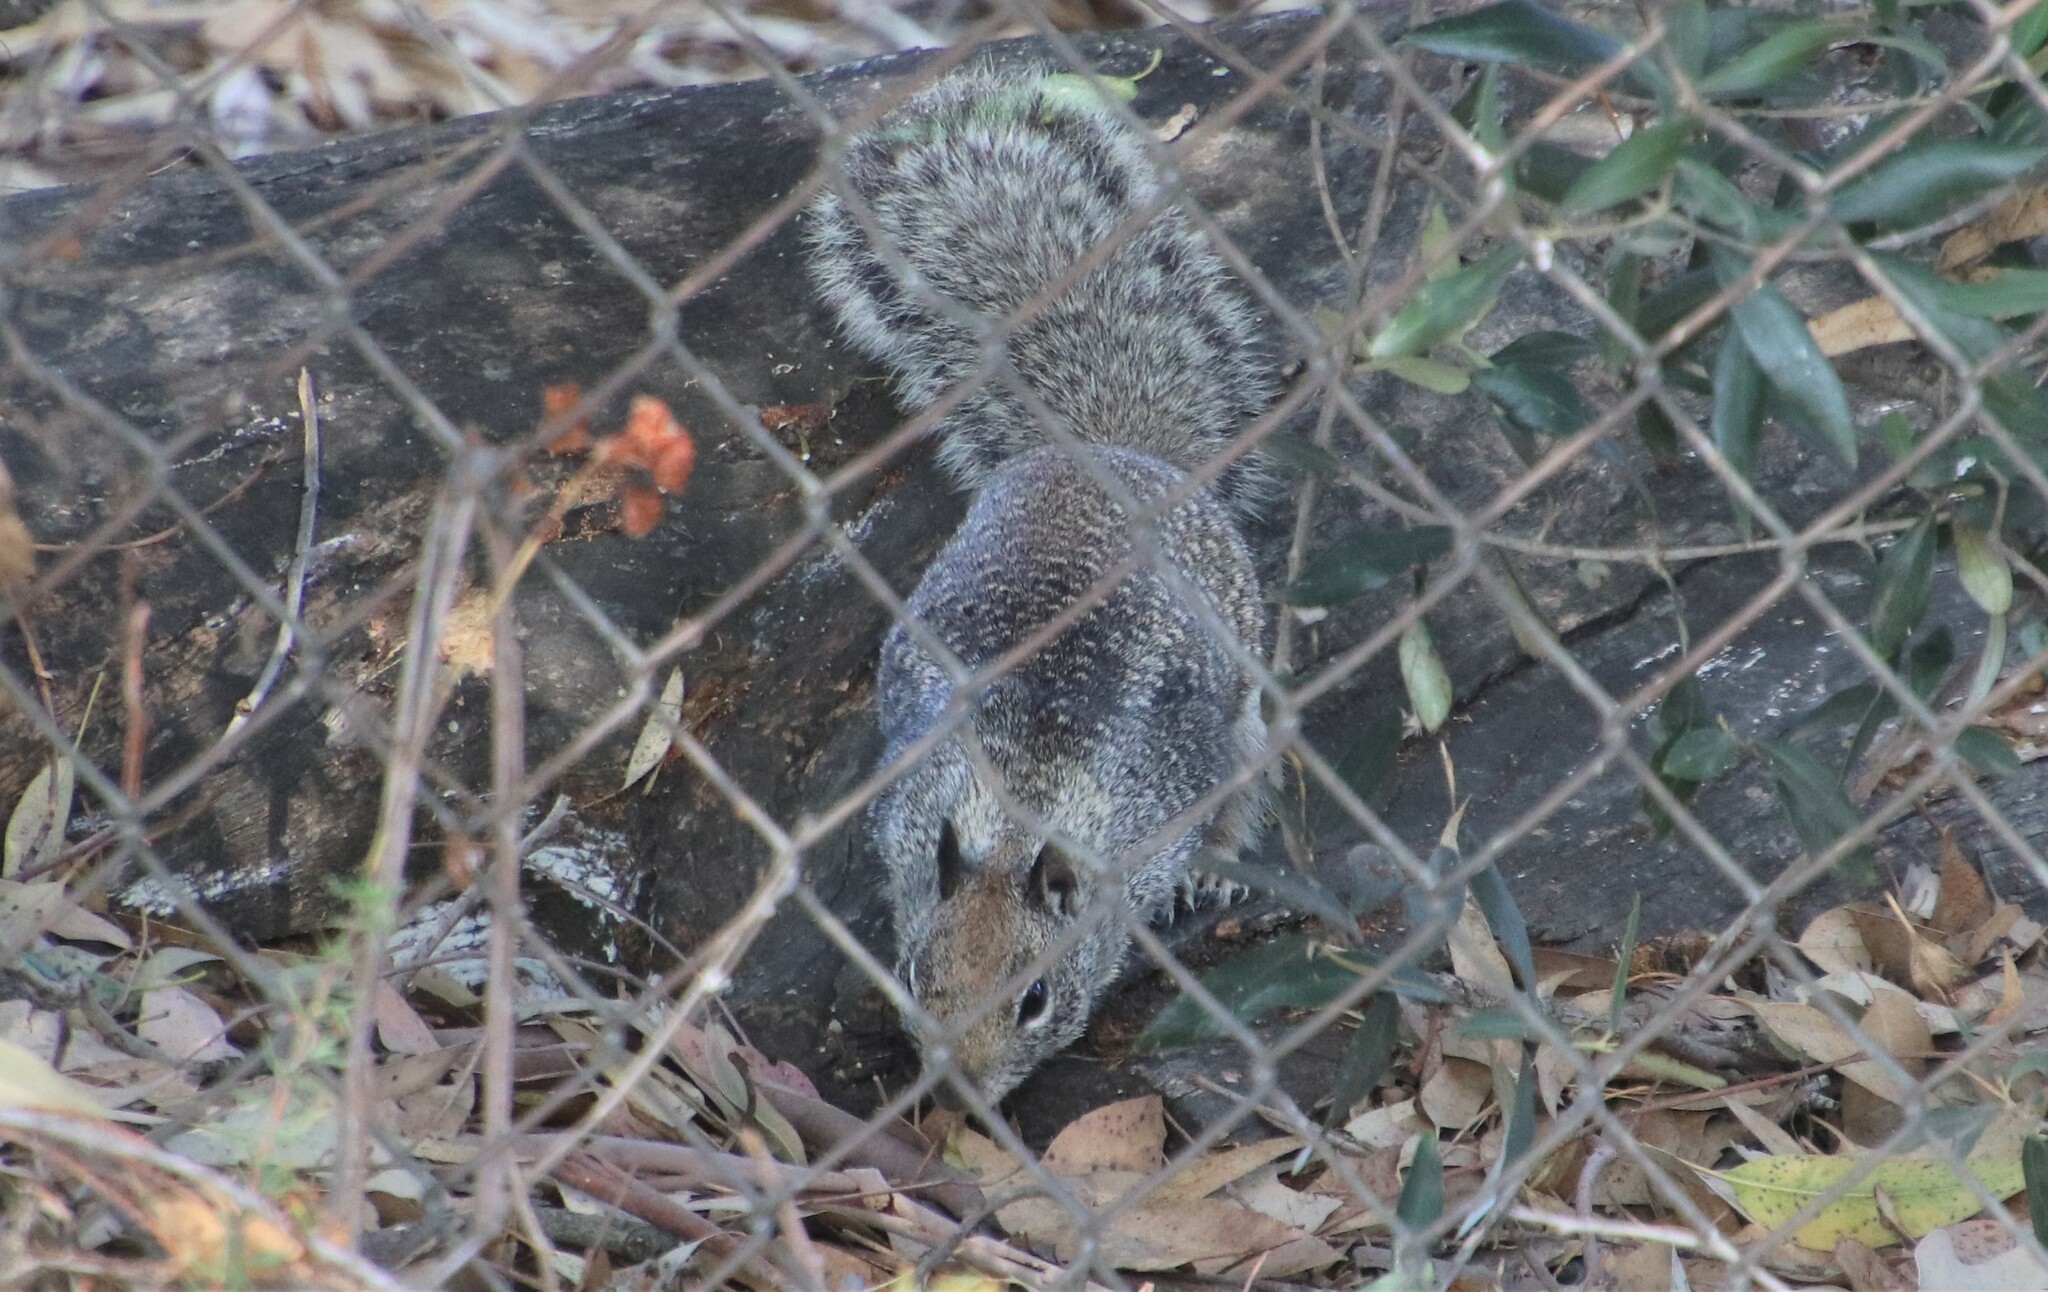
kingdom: Animalia
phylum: Chordata
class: Mammalia
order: Rodentia
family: Sciuridae
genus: Otospermophilus
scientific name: Otospermophilus beecheyi
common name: California ground squirrel
